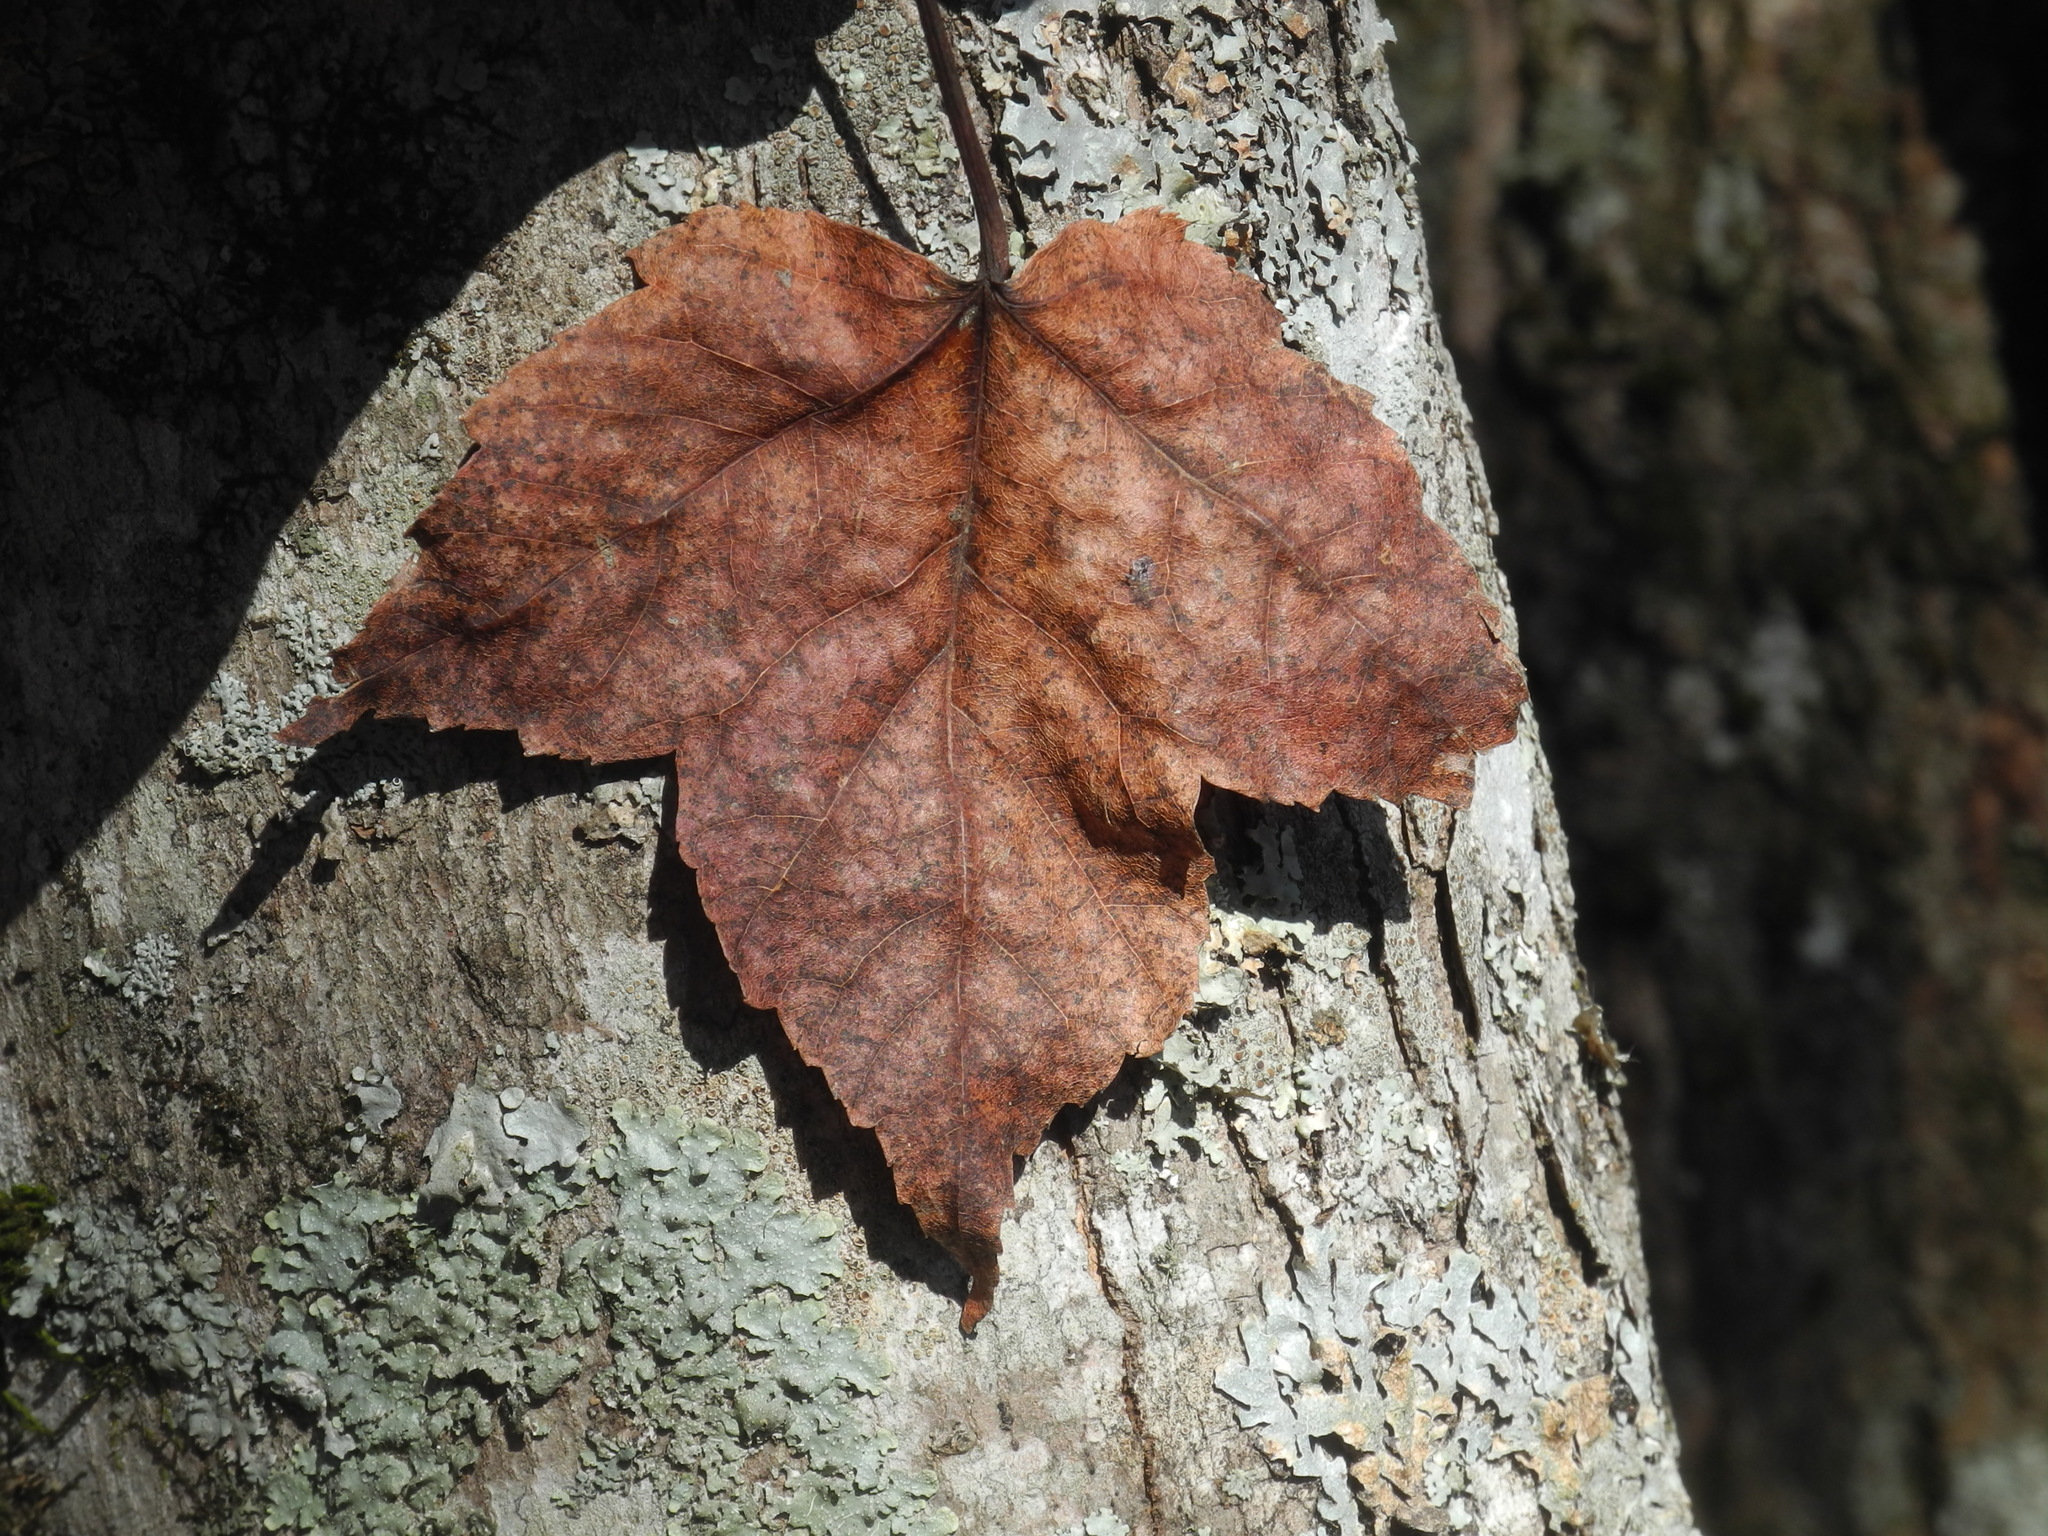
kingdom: Plantae
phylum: Tracheophyta
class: Magnoliopsida
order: Sapindales
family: Sapindaceae
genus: Acer
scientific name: Acer rubrum
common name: Red maple
